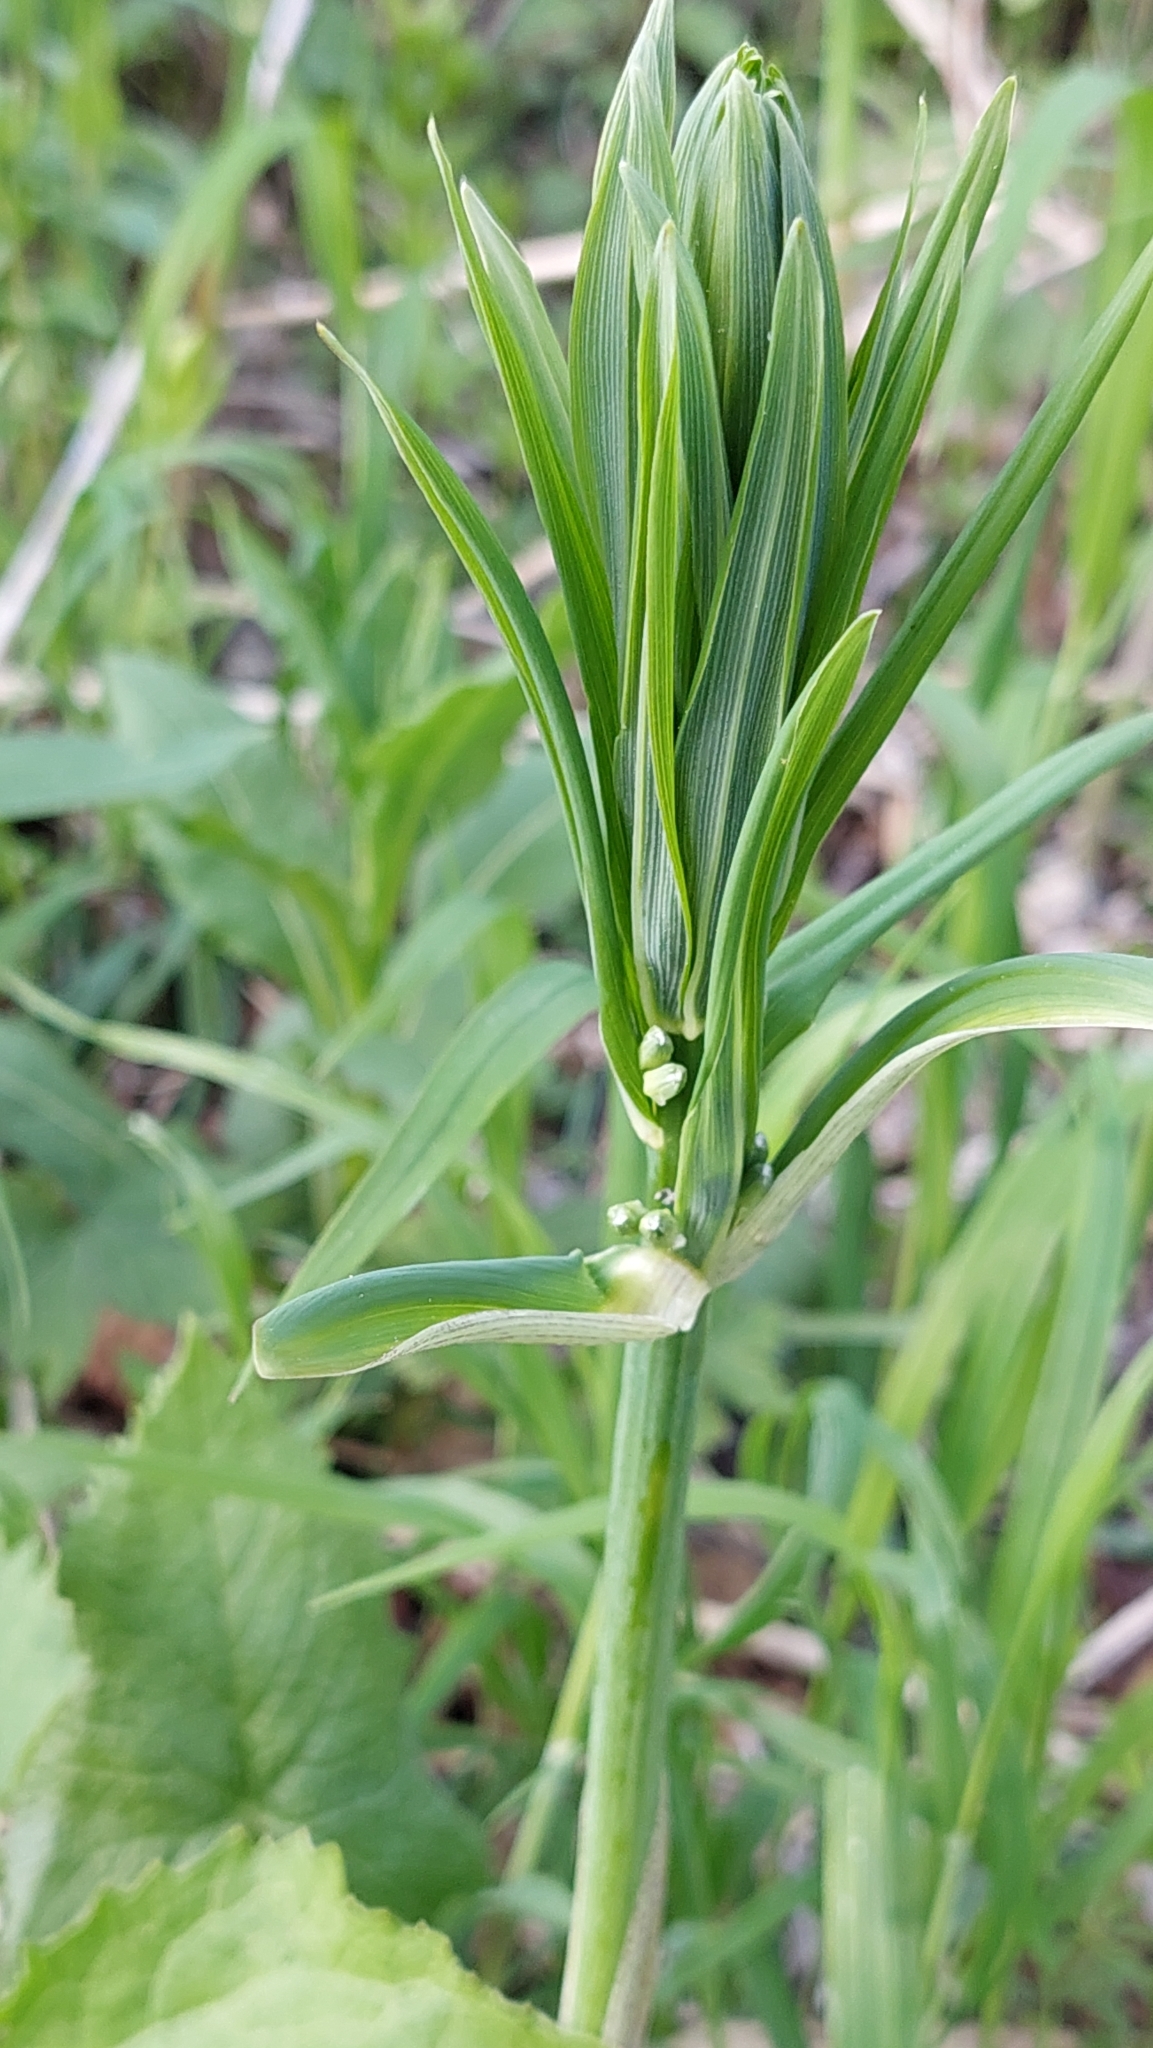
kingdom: Plantae
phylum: Tracheophyta
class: Liliopsida
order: Asparagales
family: Asparagaceae
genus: Polygonatum
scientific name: Polygonatum verticillatum
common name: Whorled solomon's-seal
